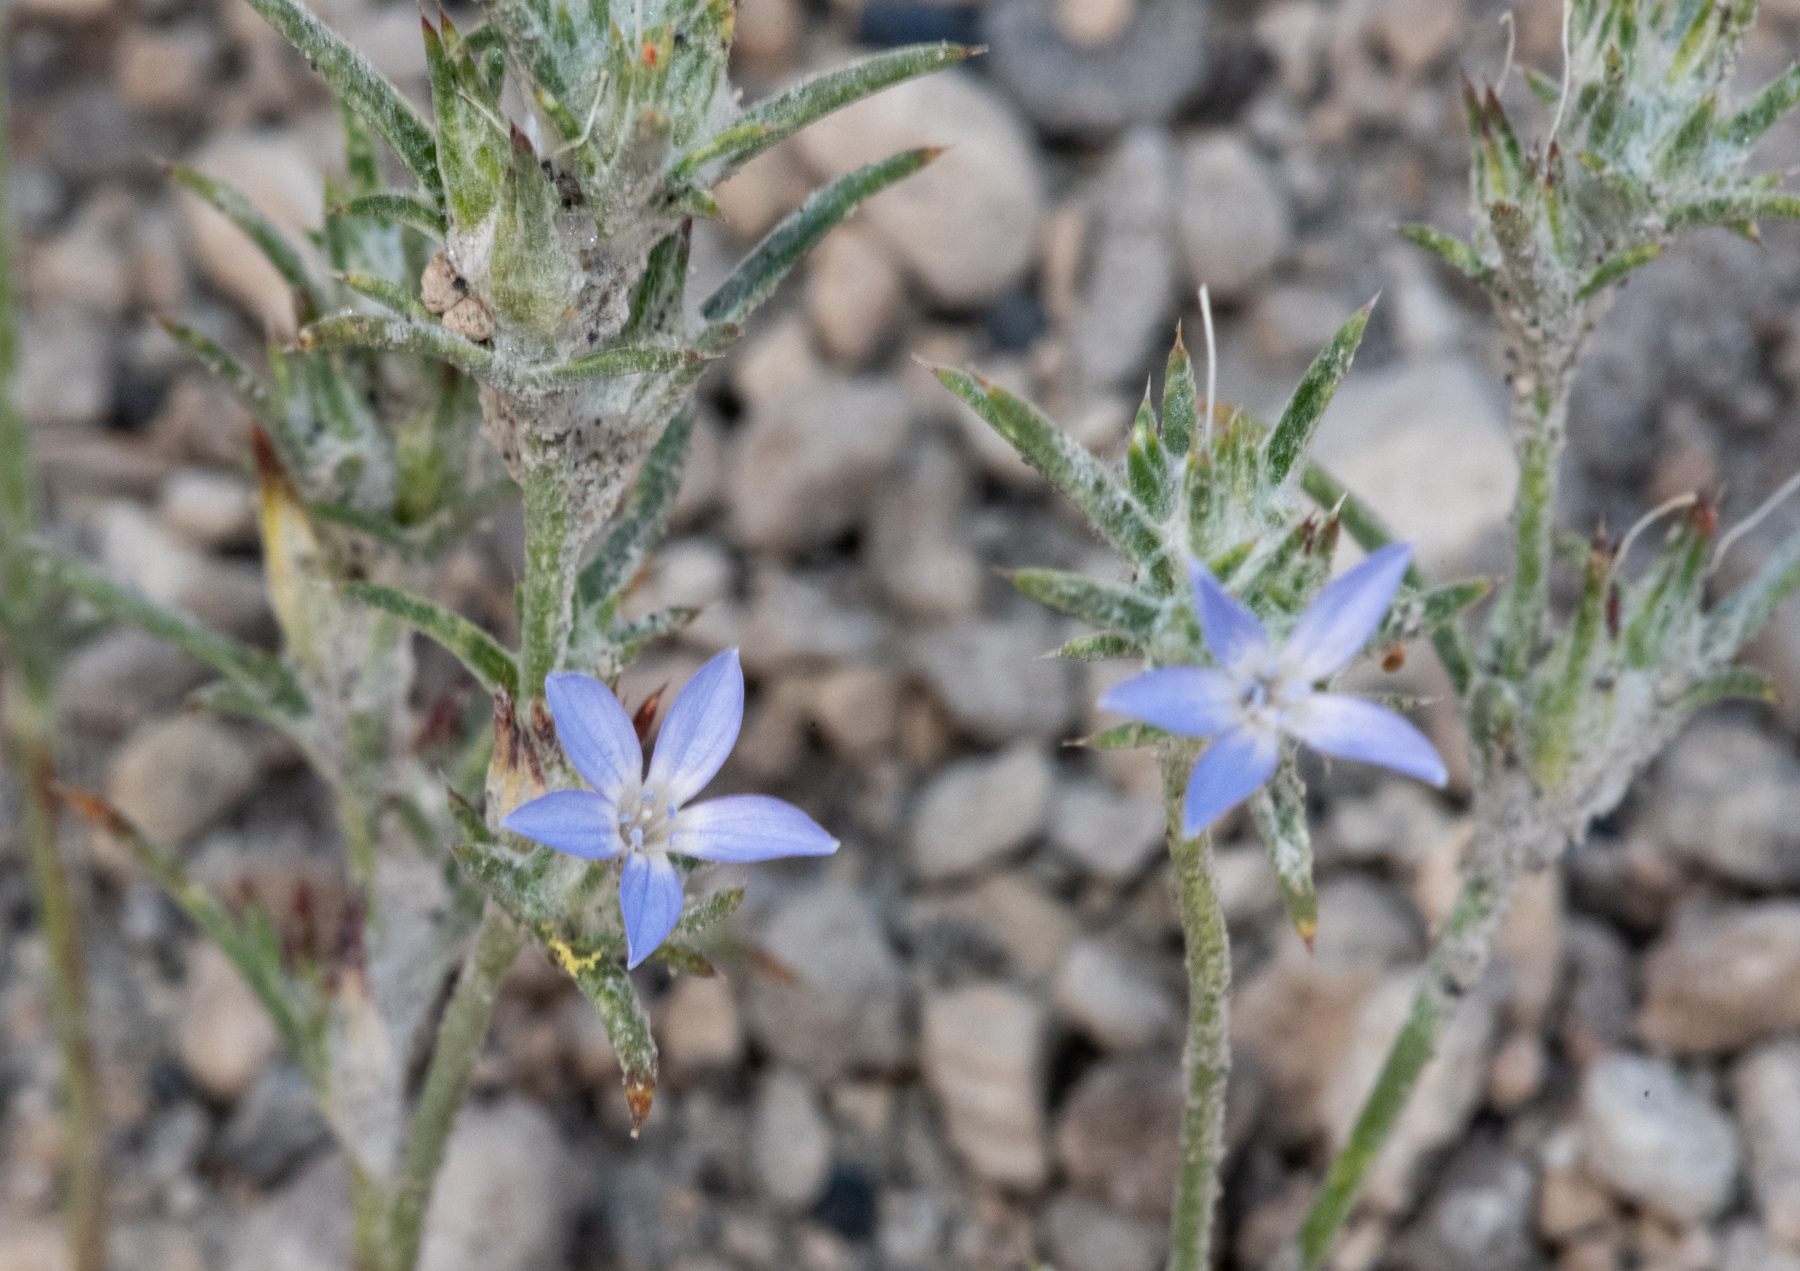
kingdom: Plantae
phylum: Tracheophyta
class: Magnoliopsida
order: Ericales
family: Polemoniaceae
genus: Eriastrum
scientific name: Eriastrum wilcoxii
